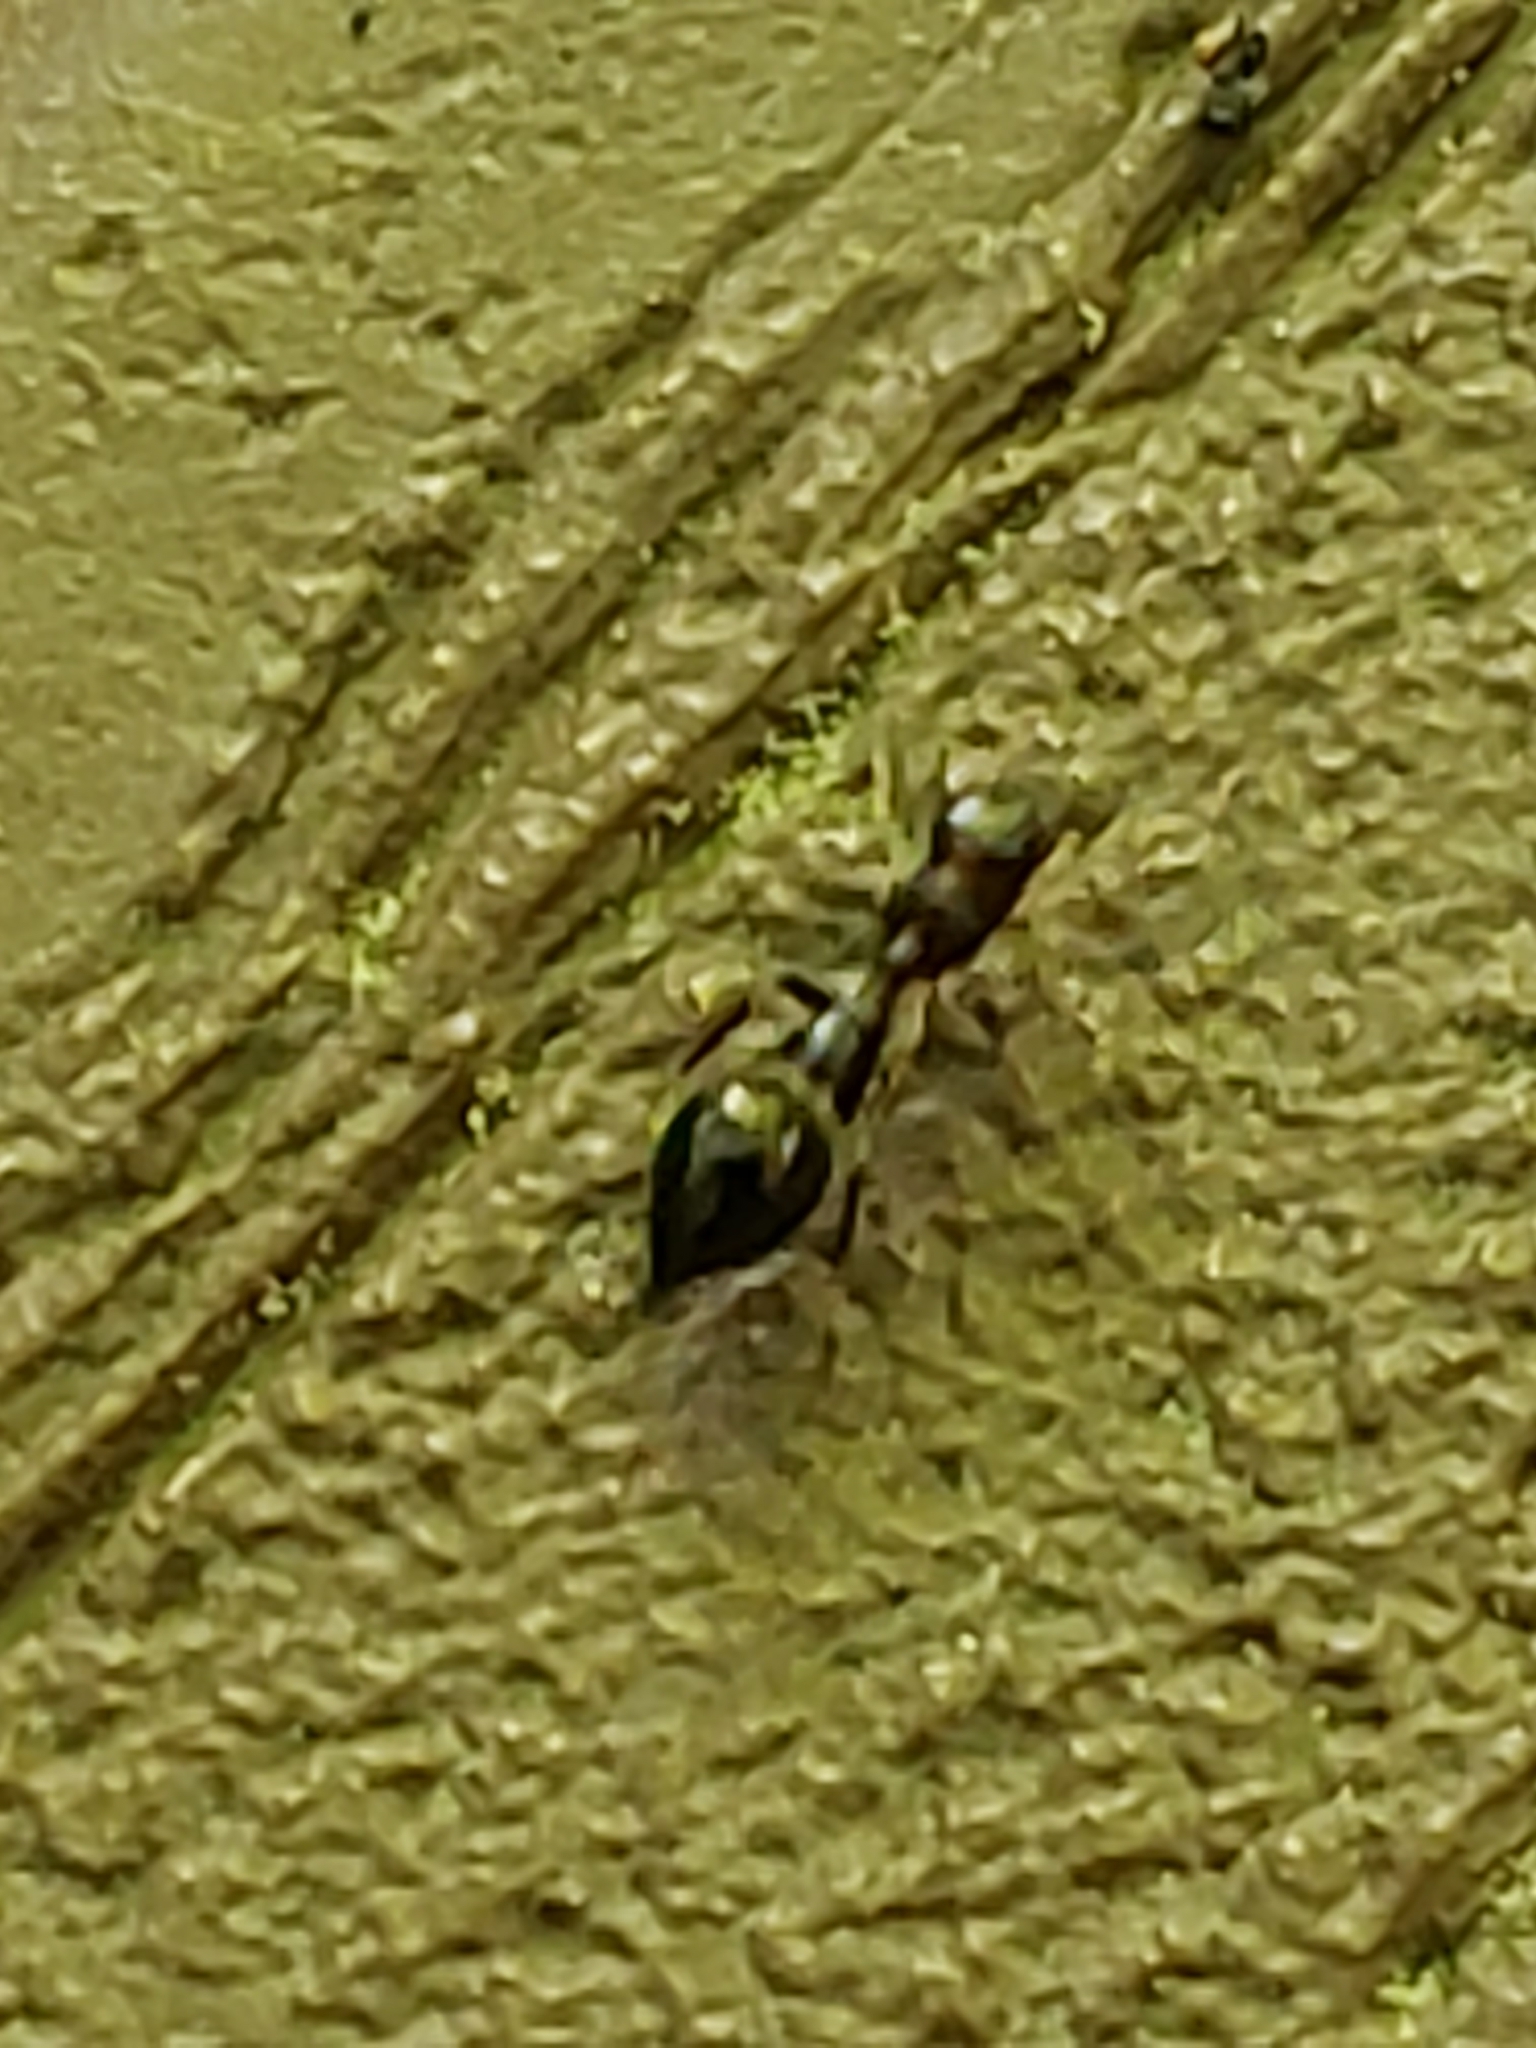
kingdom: Animalia
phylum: Arthropoda
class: Arachnida
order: Araneae
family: Salticidae
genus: Synemosyna
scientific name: Synemosyna formica
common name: Slender ant-mimic jumping spider
